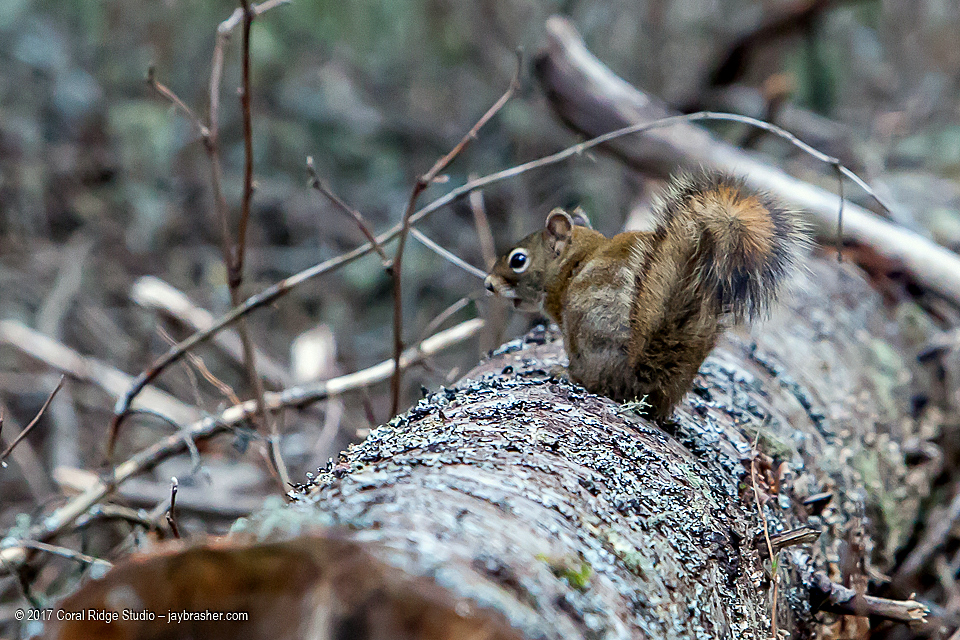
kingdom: Animalia
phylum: Chordata
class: Mammalia
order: Rodentia
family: Sciuridae
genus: Tamiasciurus
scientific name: Tamiasciurus hudsonicus
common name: Red squirrel
